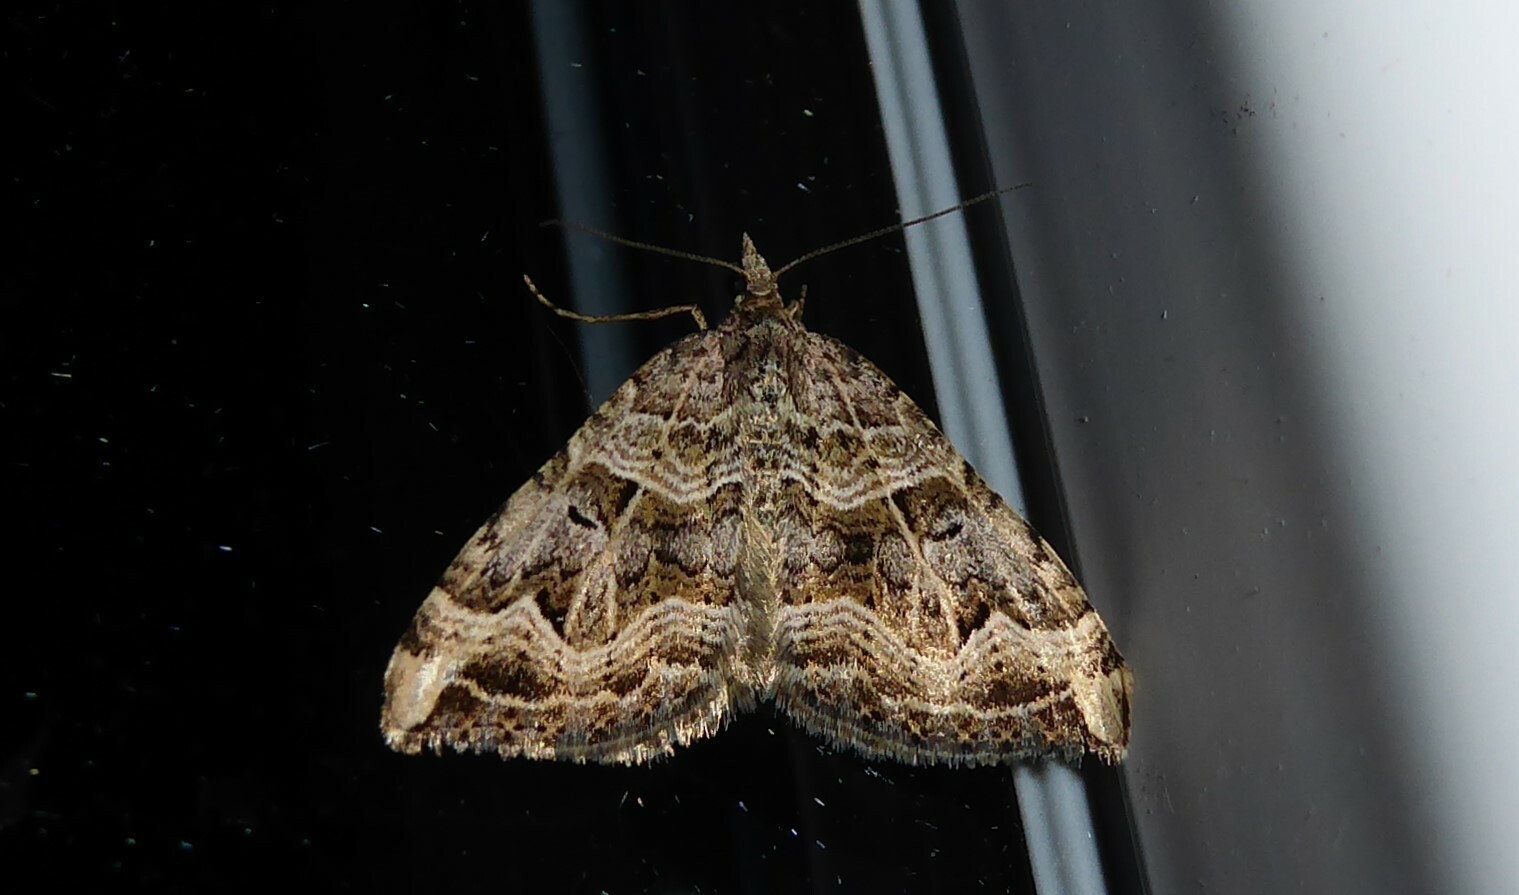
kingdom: Animalia
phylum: Arthropoda
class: Insecta
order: Lepidoptera
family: Geometridae
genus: Xanthorhoe
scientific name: Xanthorhoe semifissata
